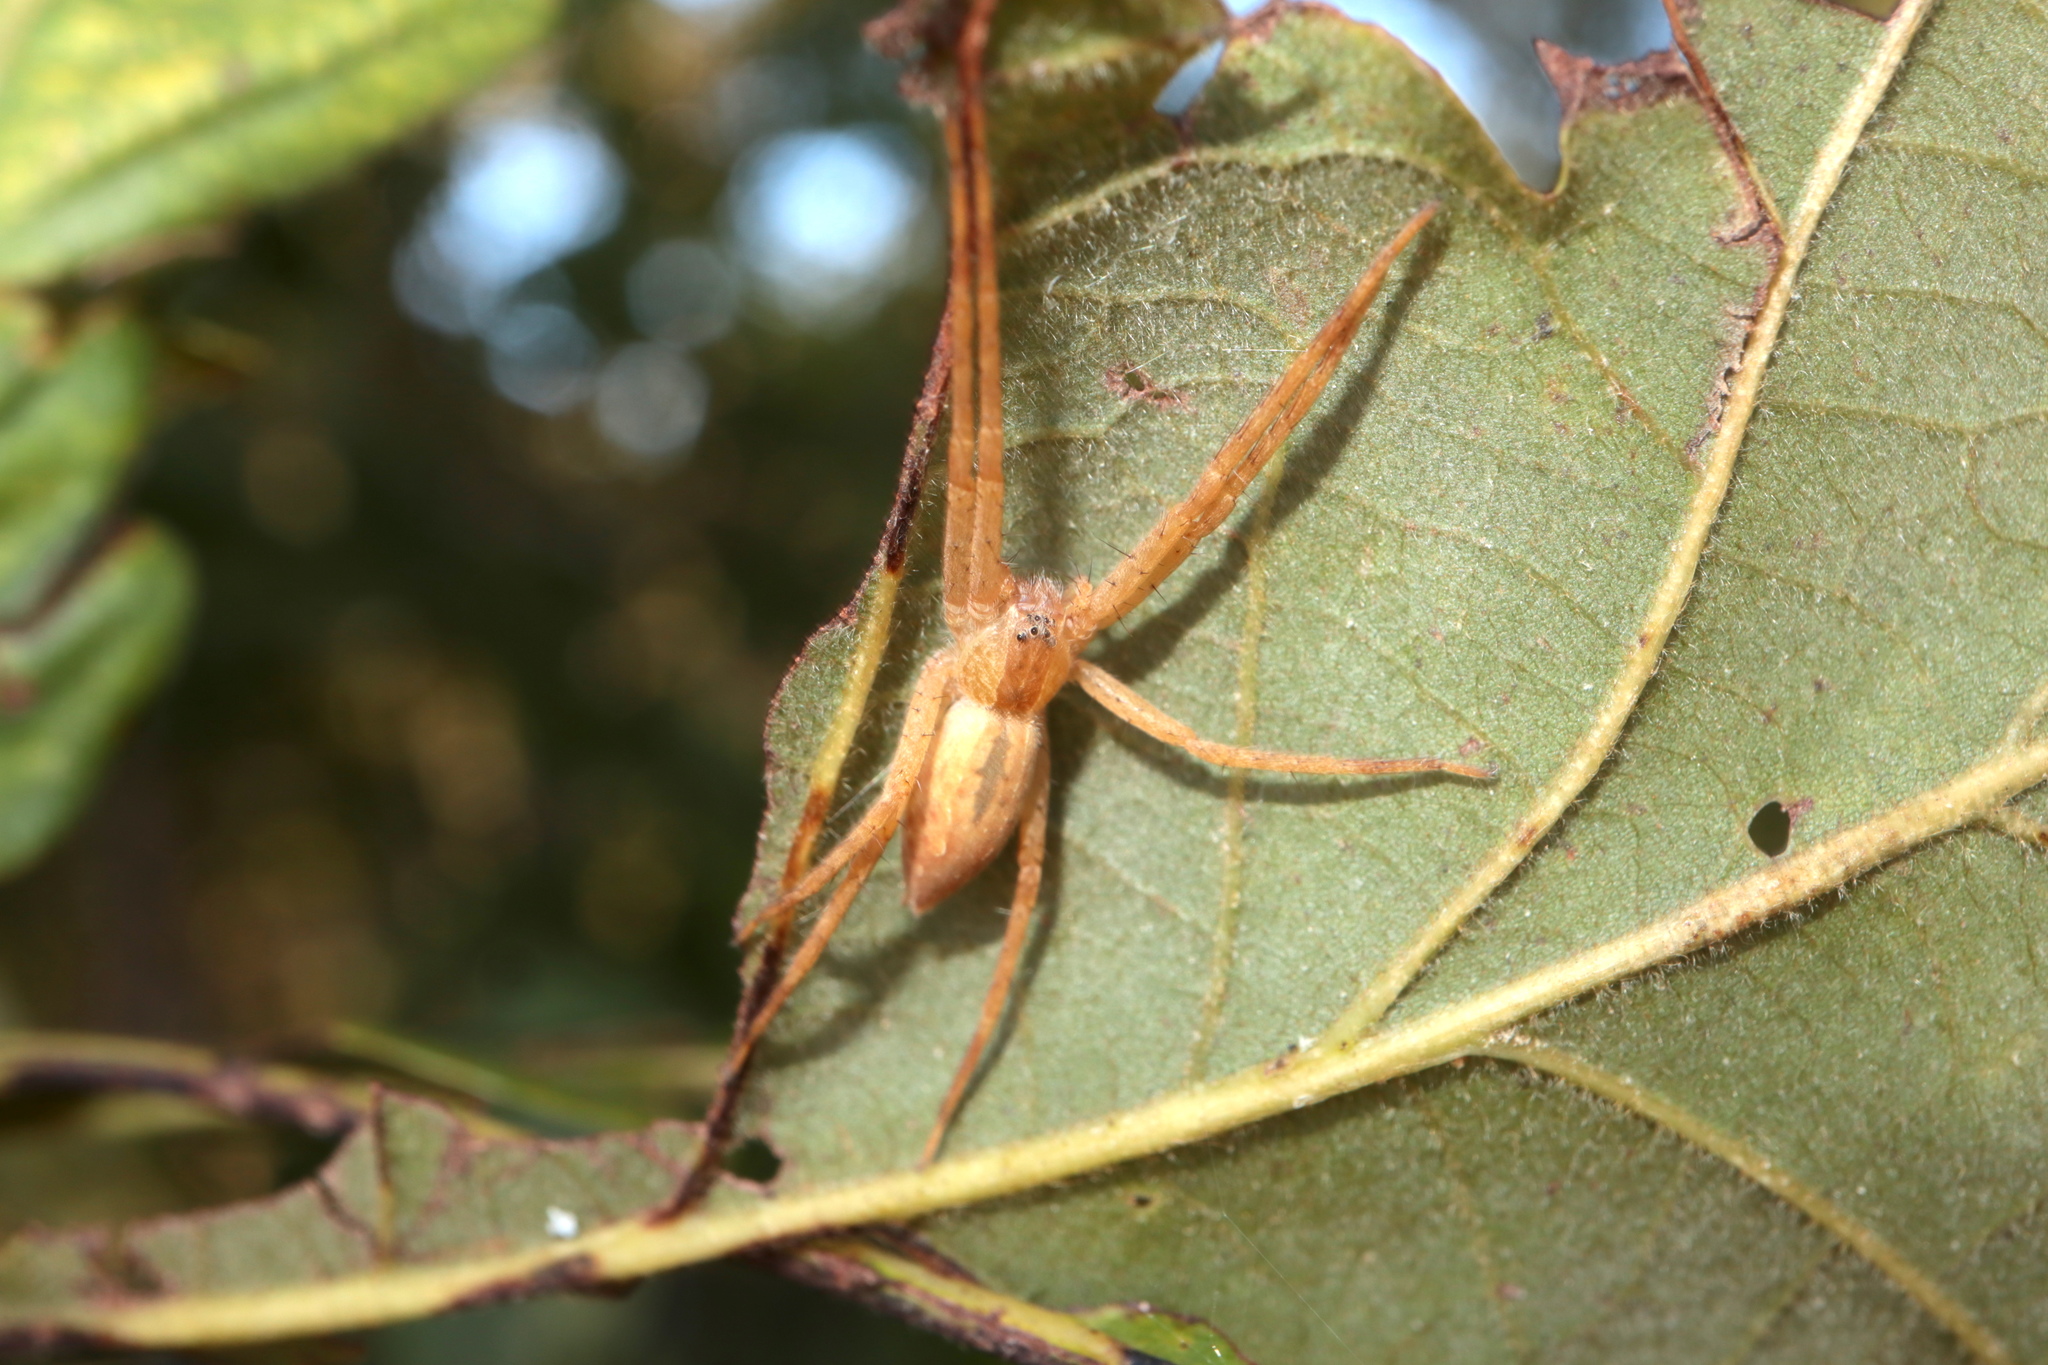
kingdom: Animalia
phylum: Arthropoda
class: Arachnida
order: Araneae
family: Pisauridae
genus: Pisaurina
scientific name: Pisaurina mira
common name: American nursery web spider
